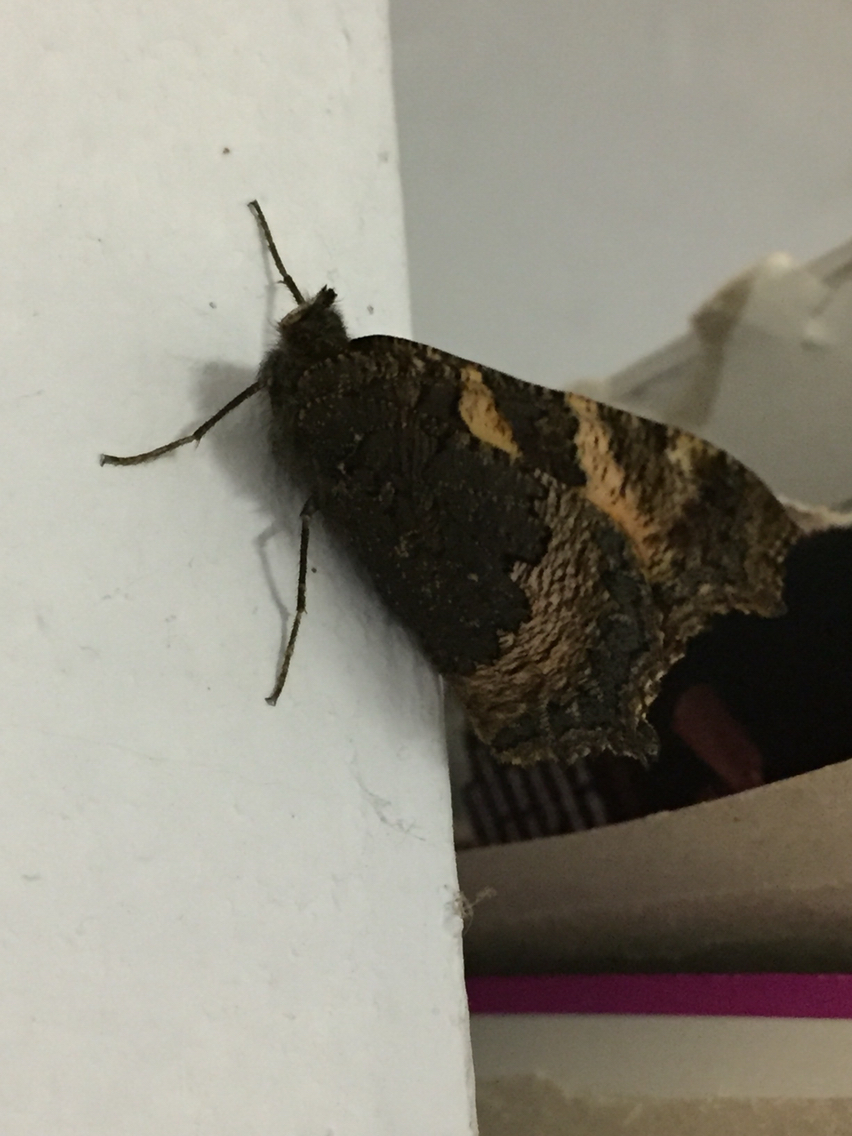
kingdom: Animalia
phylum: Arthropoda
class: Insecta
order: Lepidoptera
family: Nymphalidae
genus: Aglais
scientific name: Aglais urticae
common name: Small tortoiseshell
